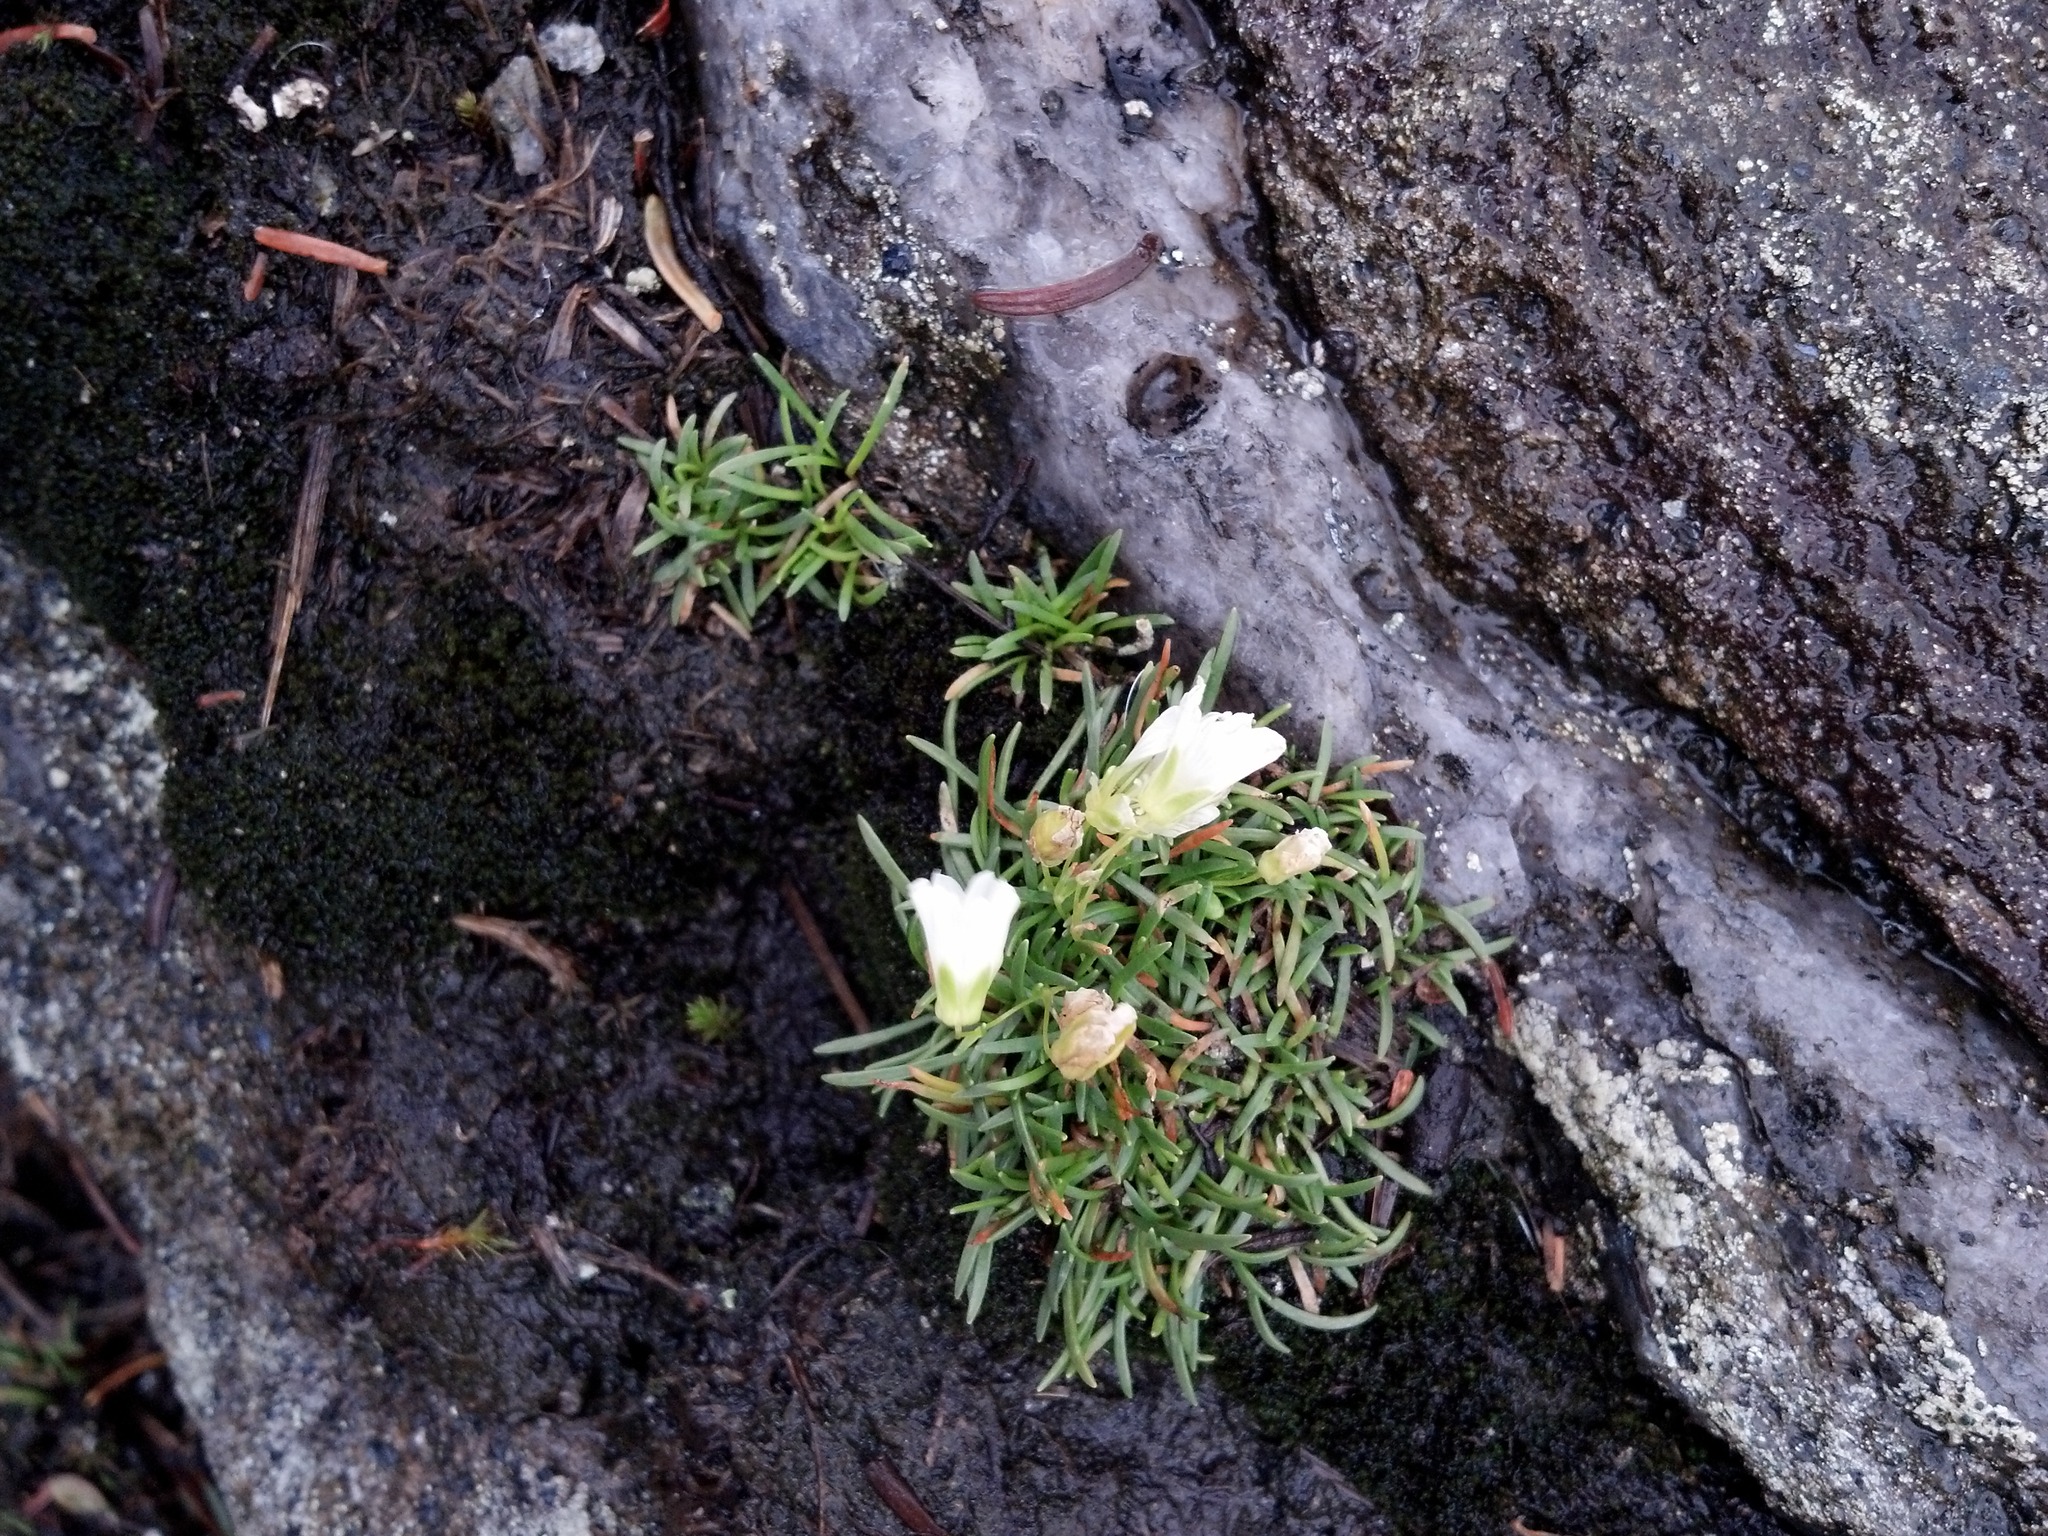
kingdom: Plantae
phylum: Tracheophyta
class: Magnoliopsida
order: Caryophyllales
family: Caryophyllaceae
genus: Geocarpon
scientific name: Geocarpon groenlandicum
